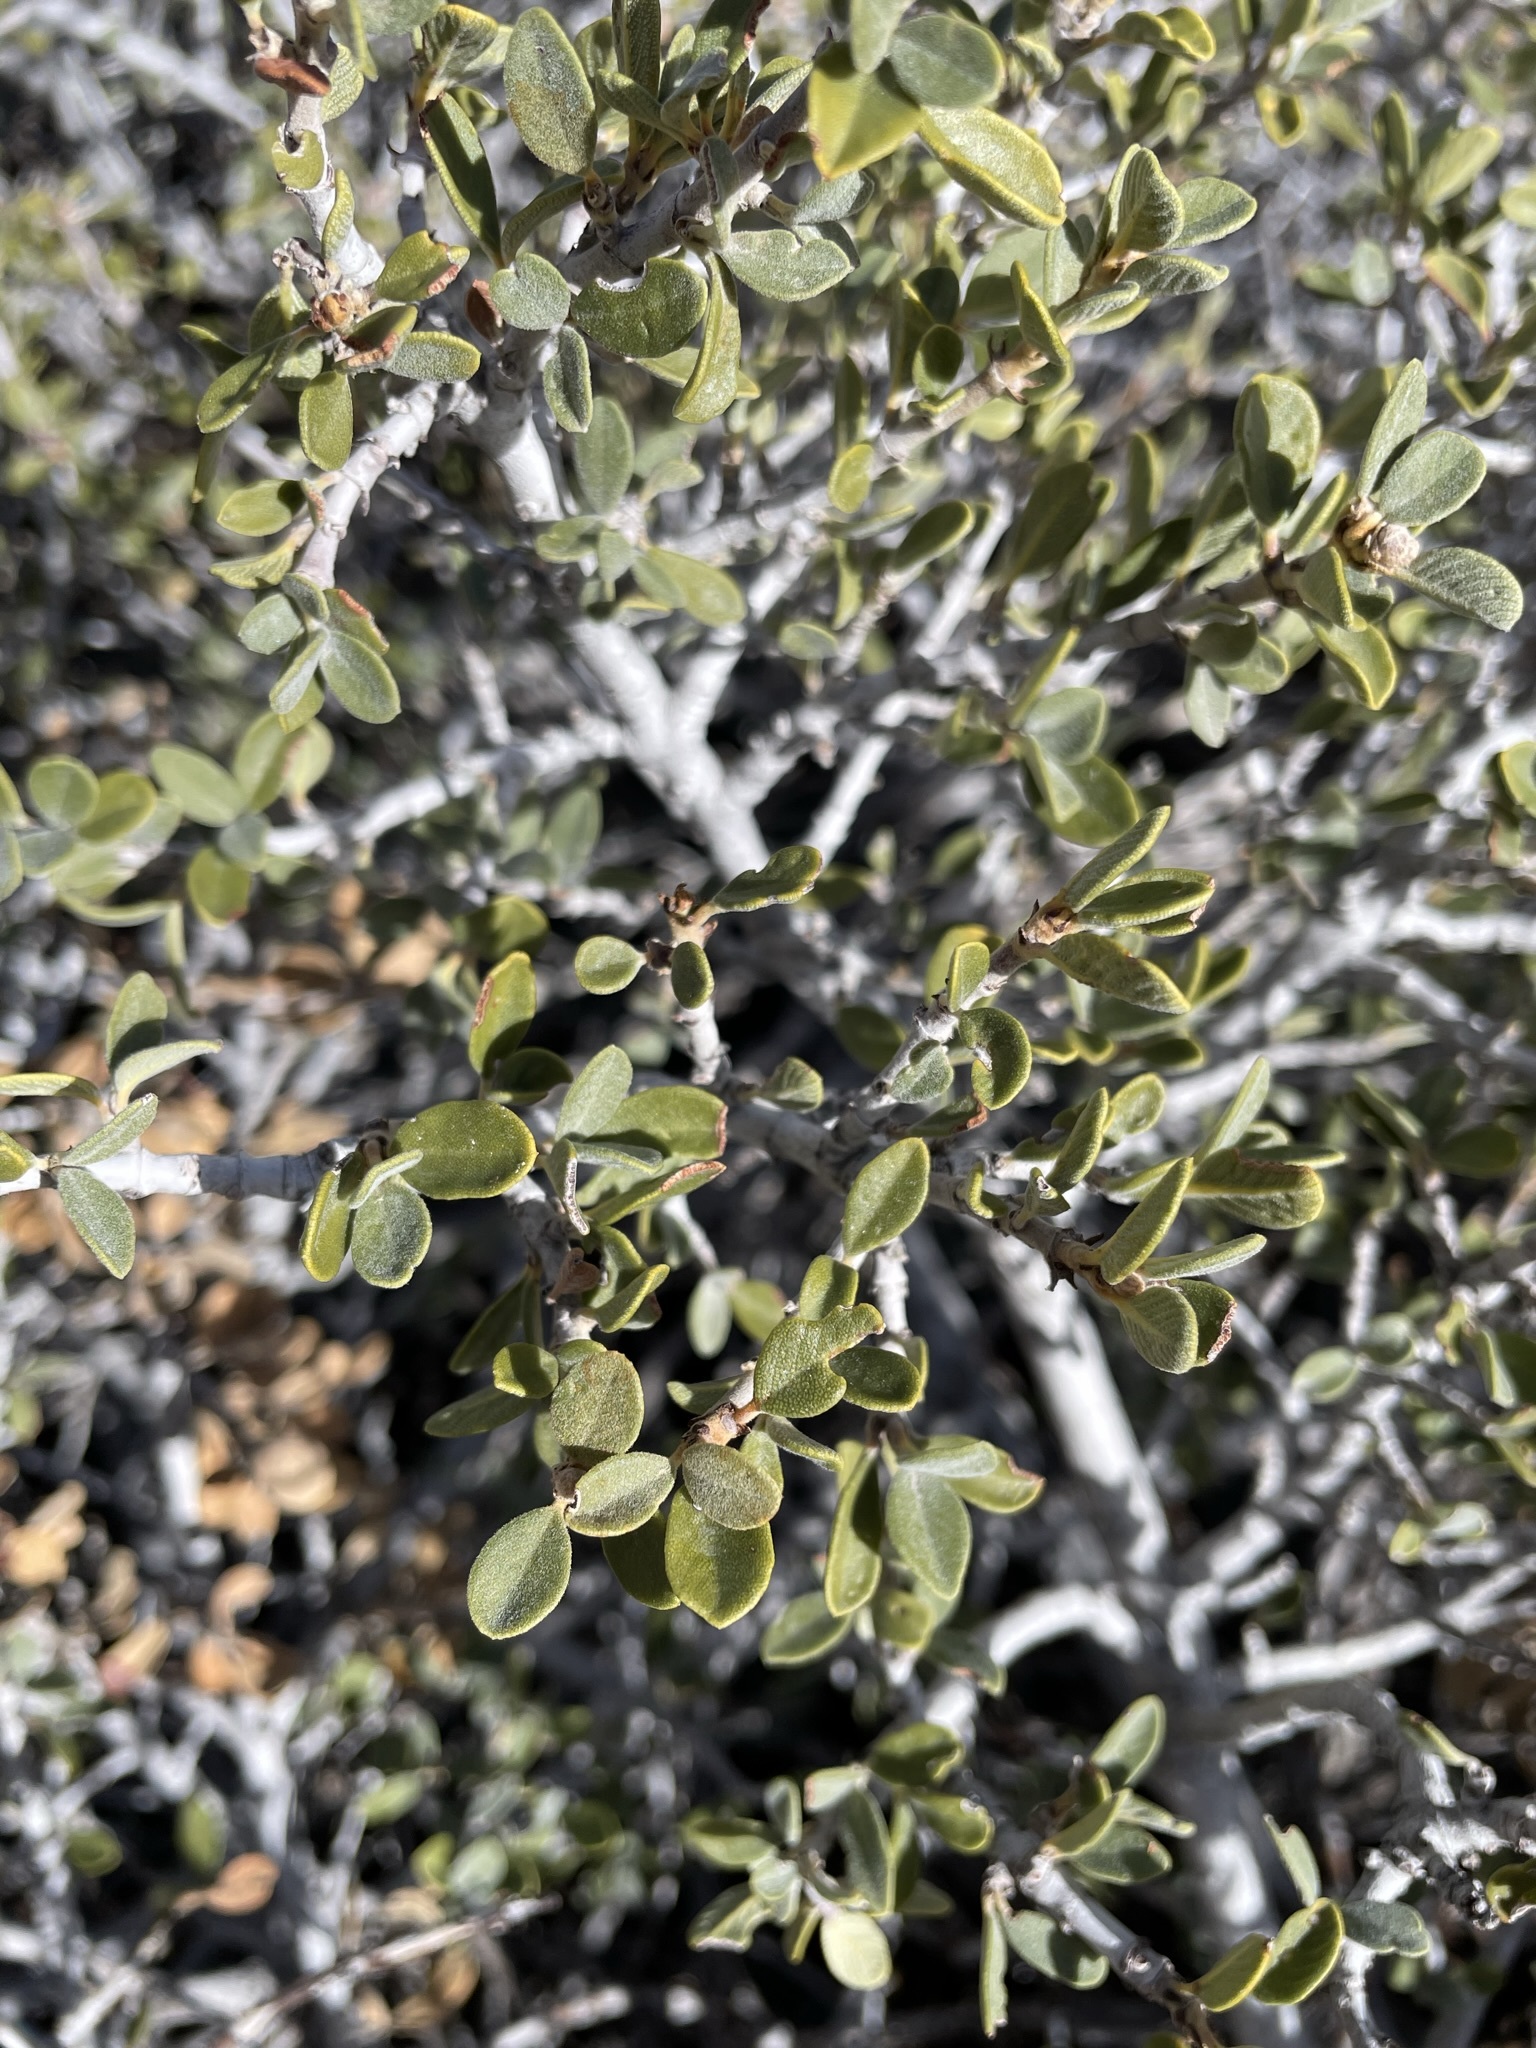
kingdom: Plantae
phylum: Tracheophyta
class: Magnoliopsida
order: Rosales
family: Rhamnaceae
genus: Ceanothus
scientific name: Ceanothus pauciflorus
